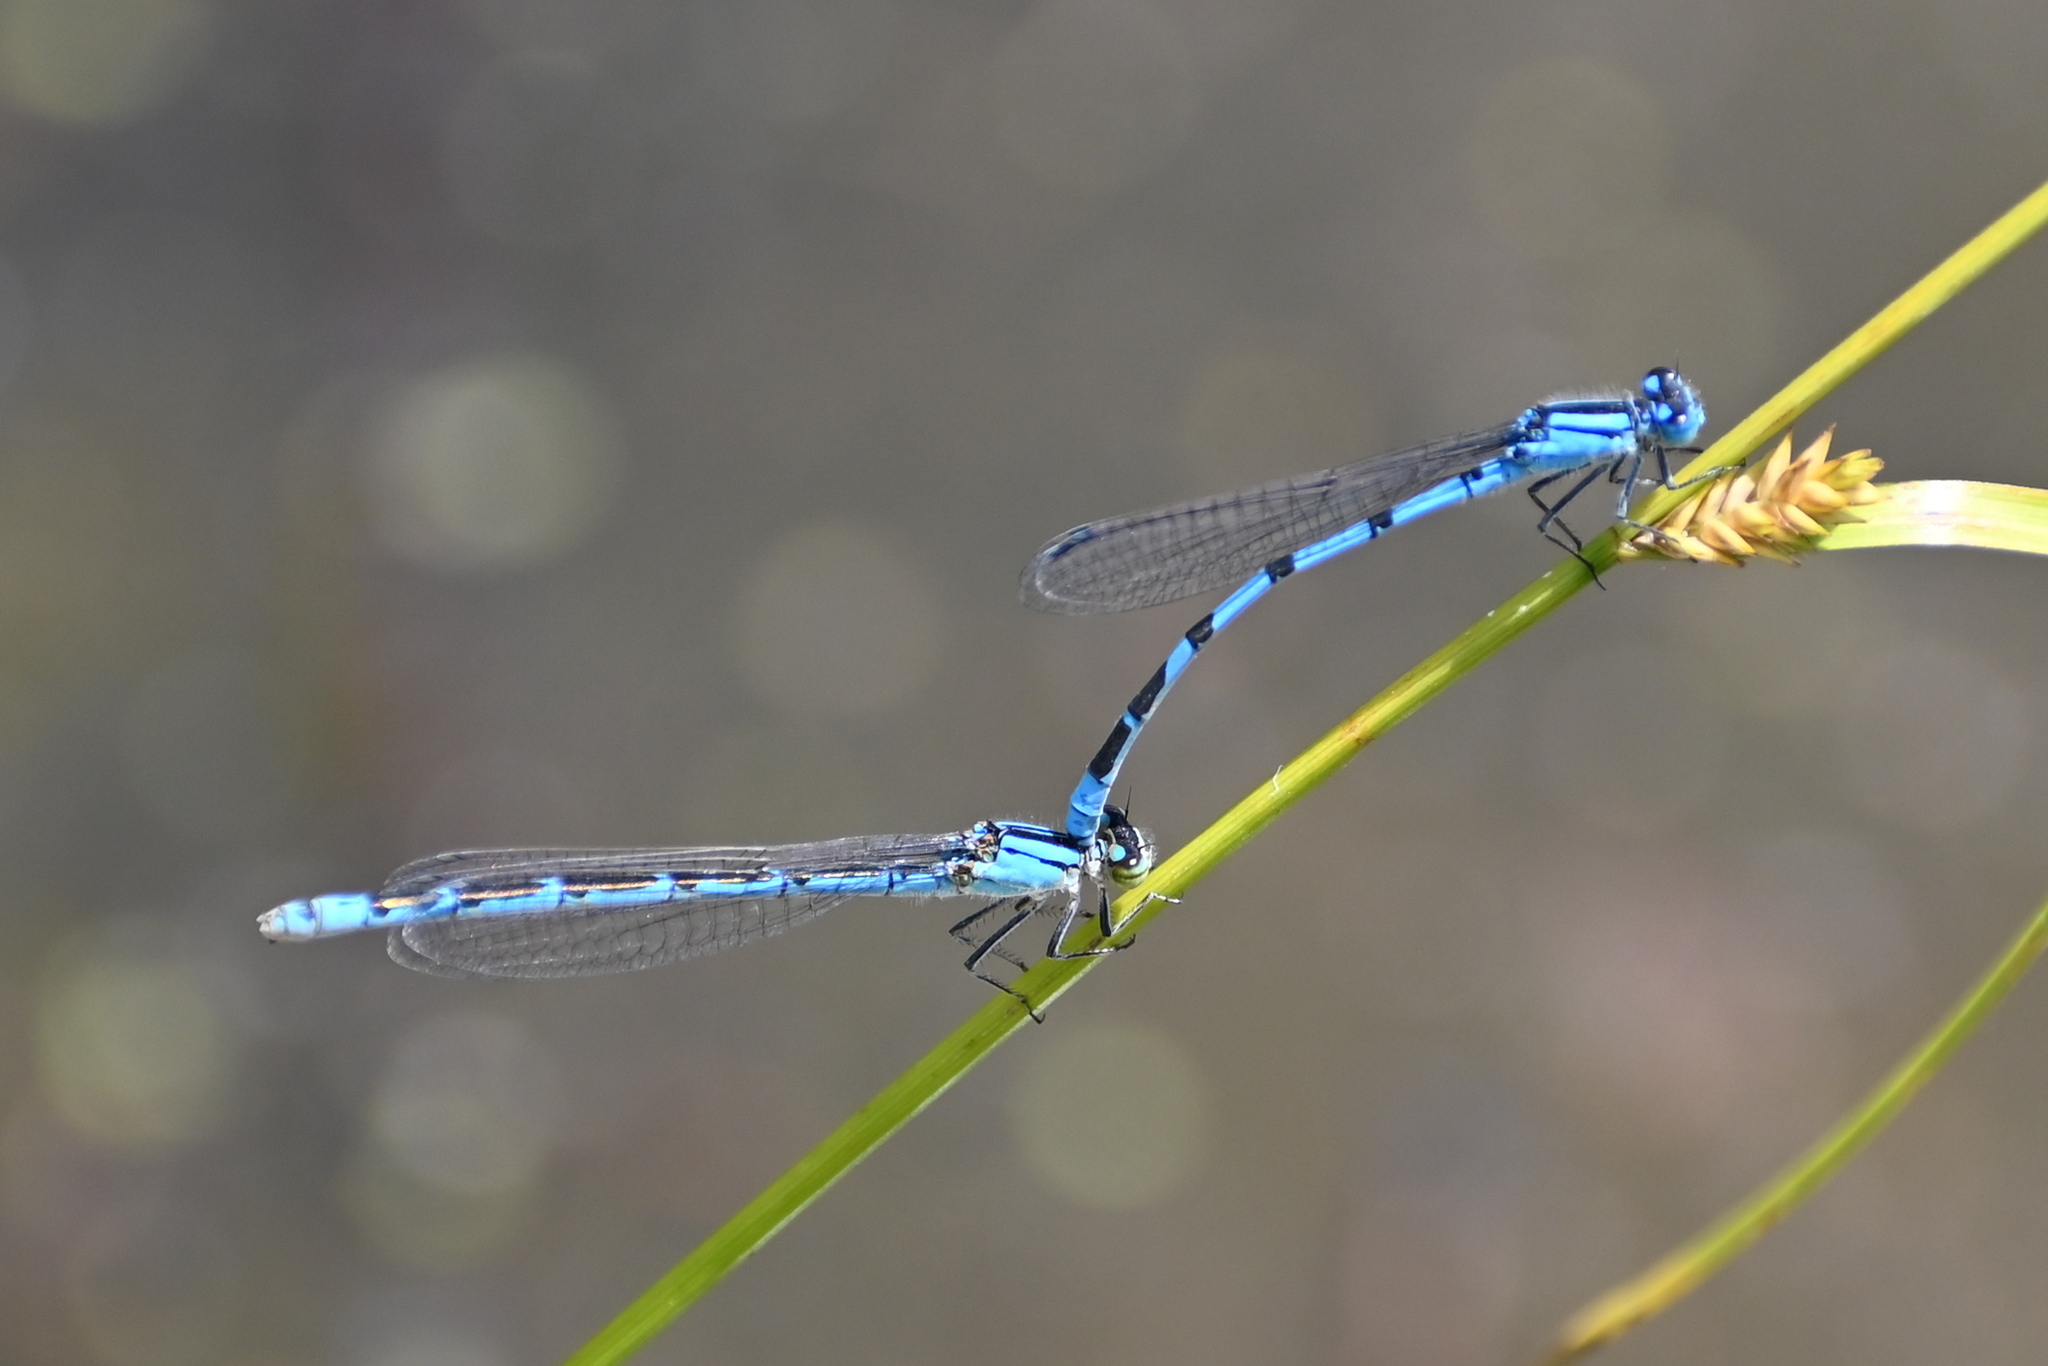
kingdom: Animalia
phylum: Arthropoda
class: Insecta
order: Odonata
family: Coenagrionidae
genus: Enallagma
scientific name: Enallagma cyathigerum
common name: Common blue damselfly
